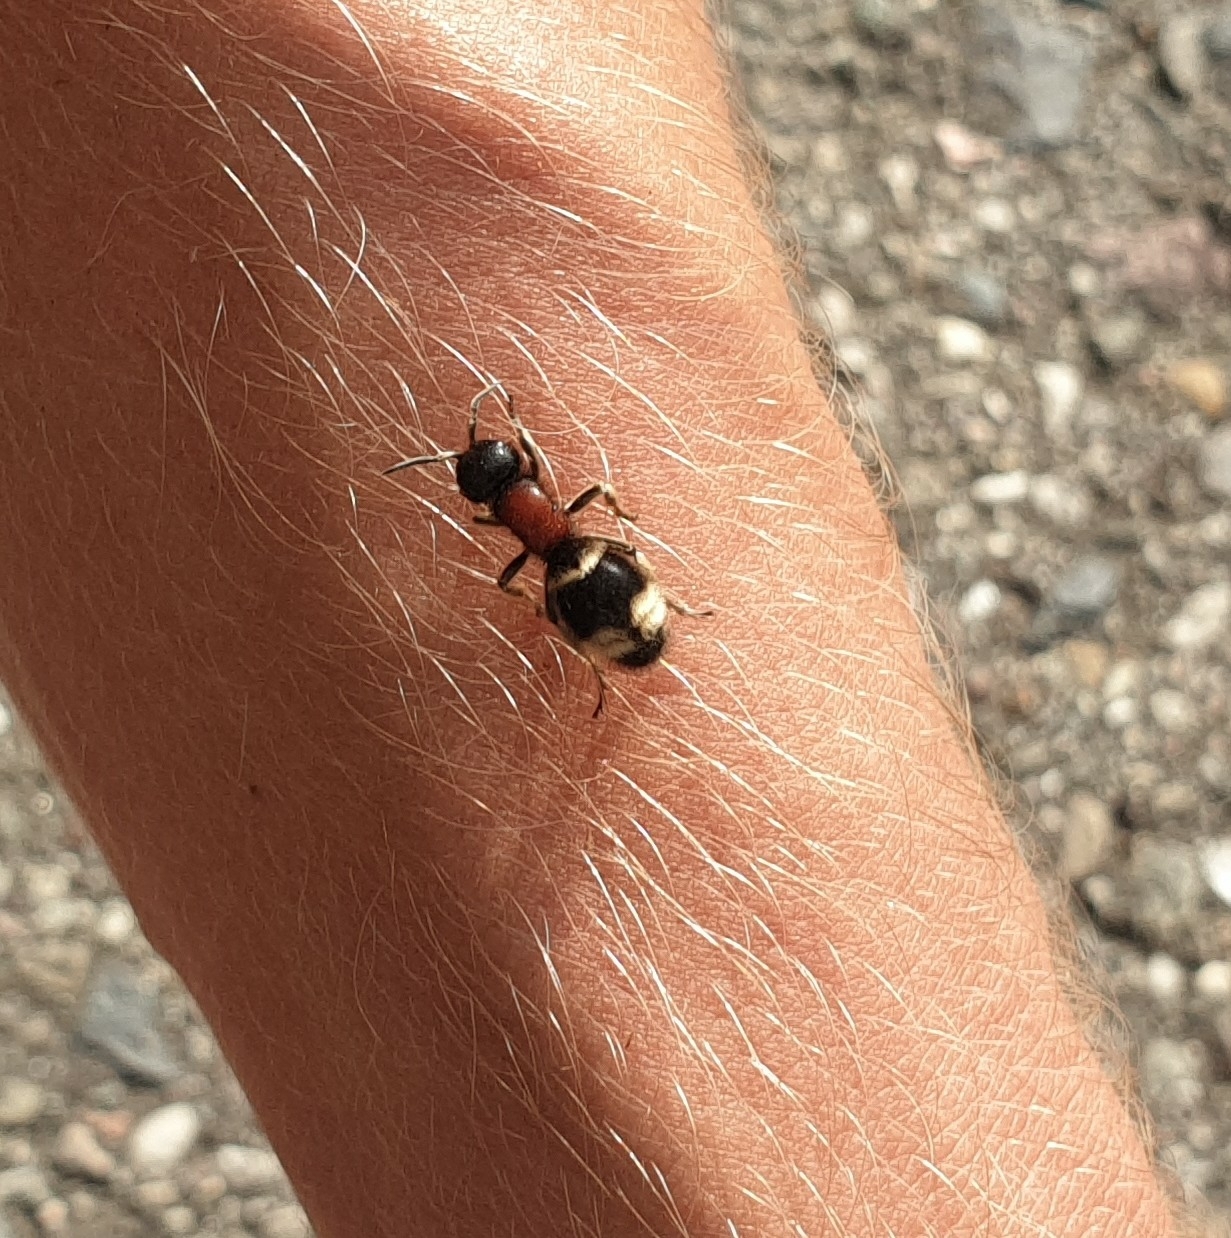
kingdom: Animalia
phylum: Arthropoda
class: Insecta
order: Hymenoptera
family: Mutillidae
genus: Mutilla
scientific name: Mutilla marginata
